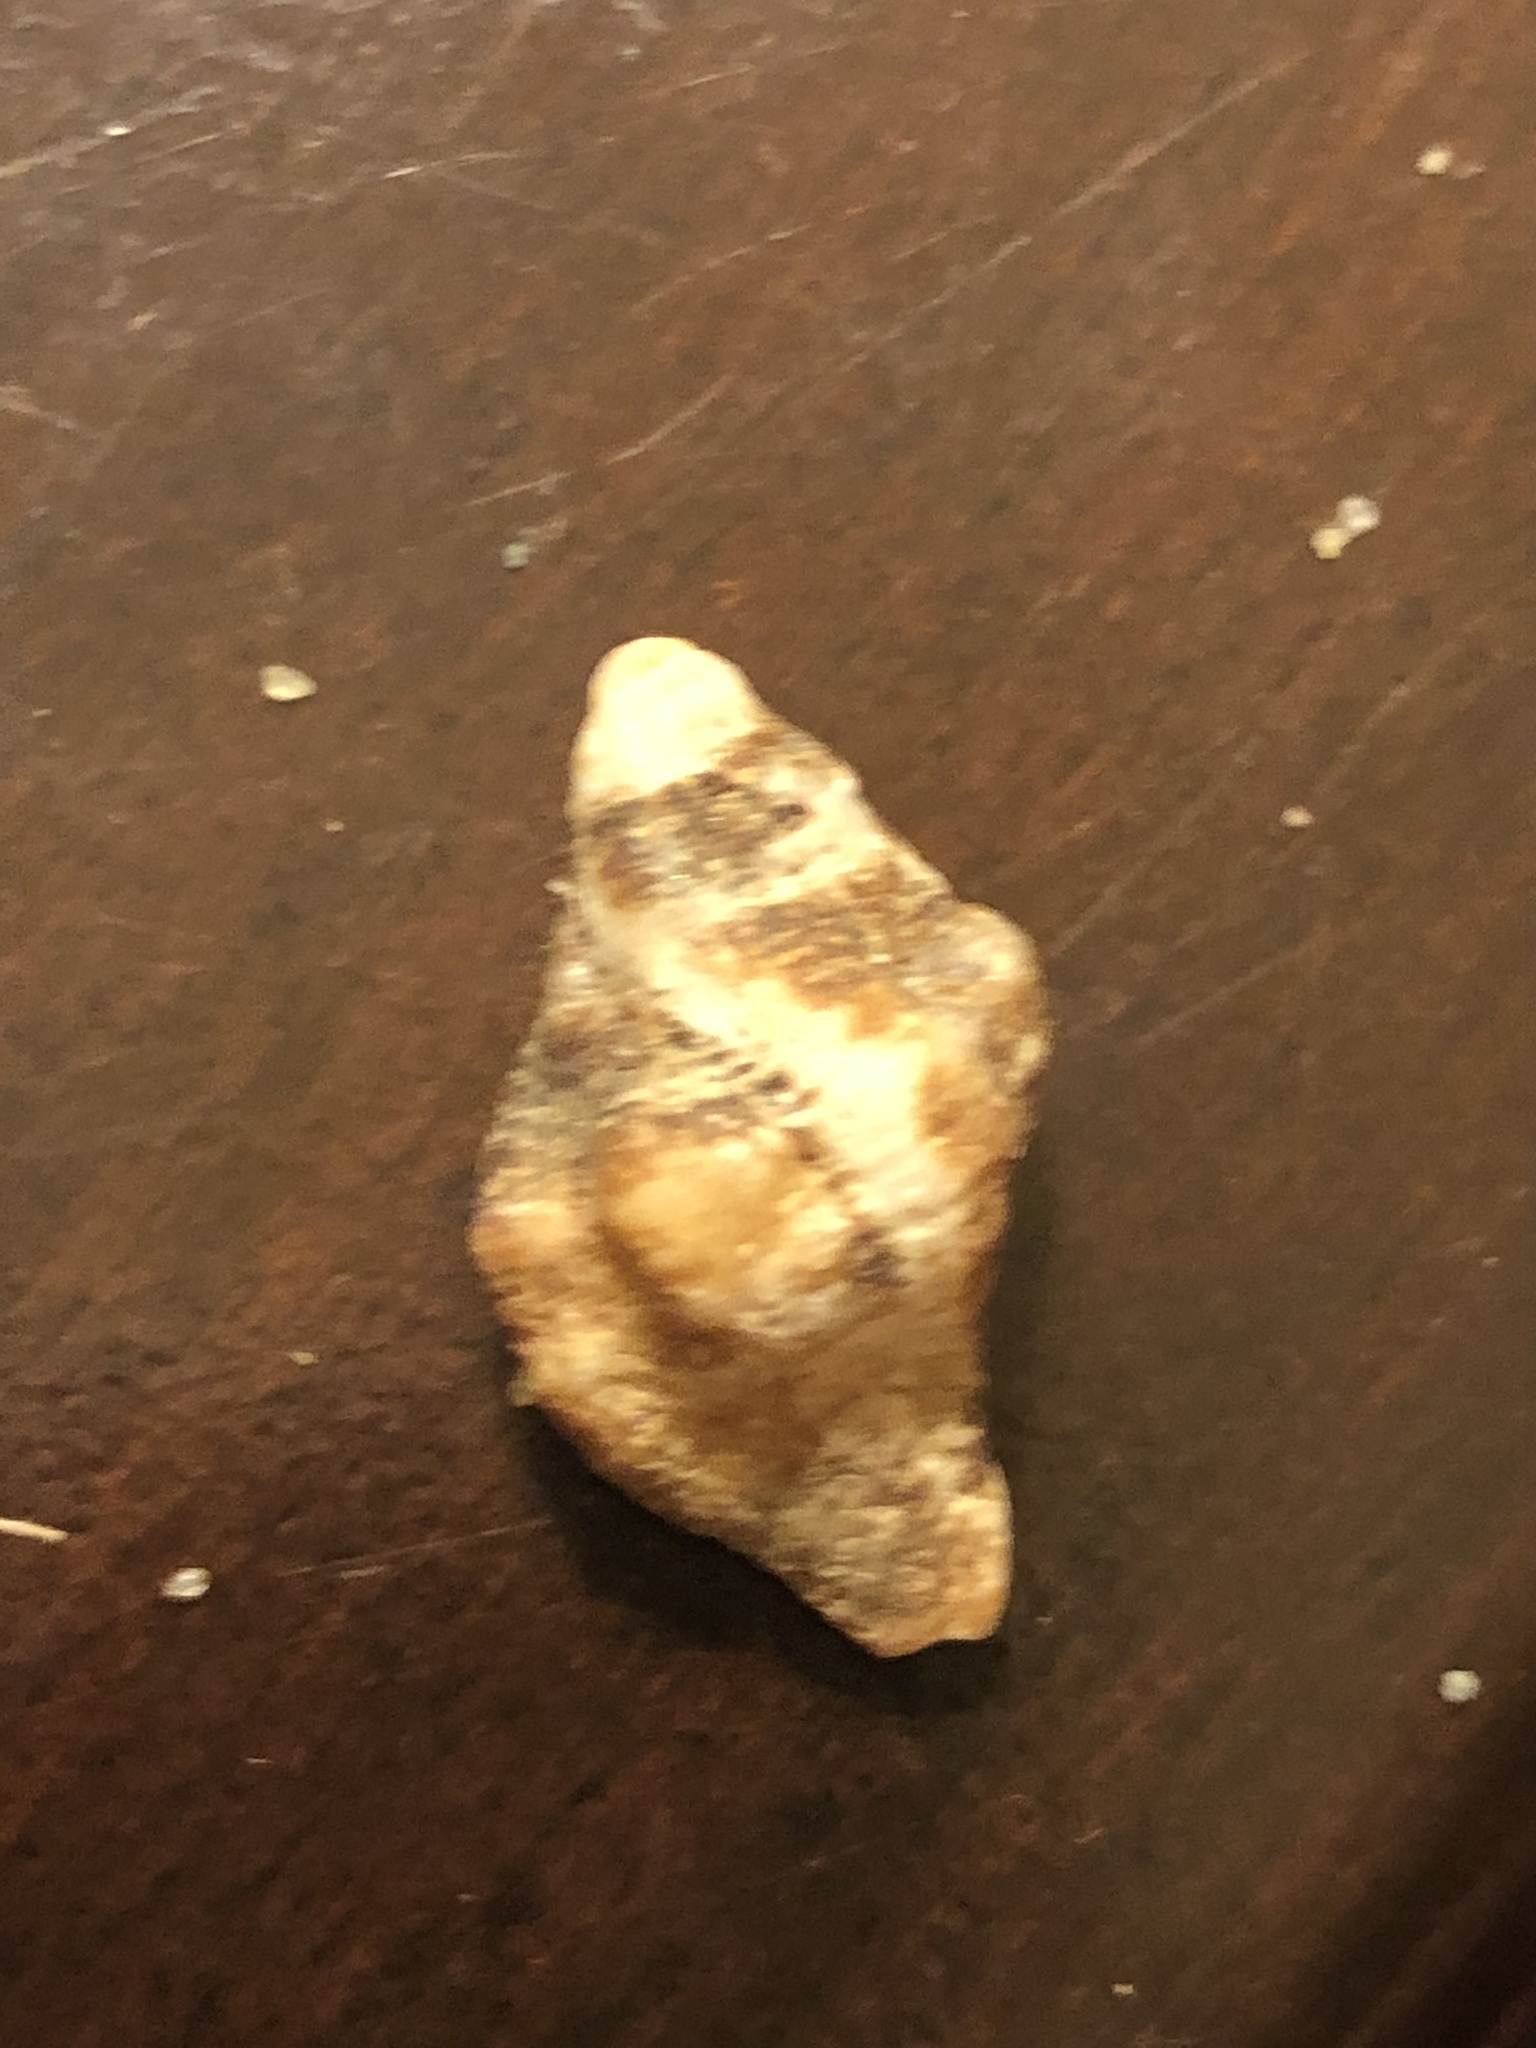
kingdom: Animalia
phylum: Mollusca
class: Gastropoda
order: Neogastropoda
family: Muricidae
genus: Ceratostoma
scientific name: Ceratostoma nuttalli
